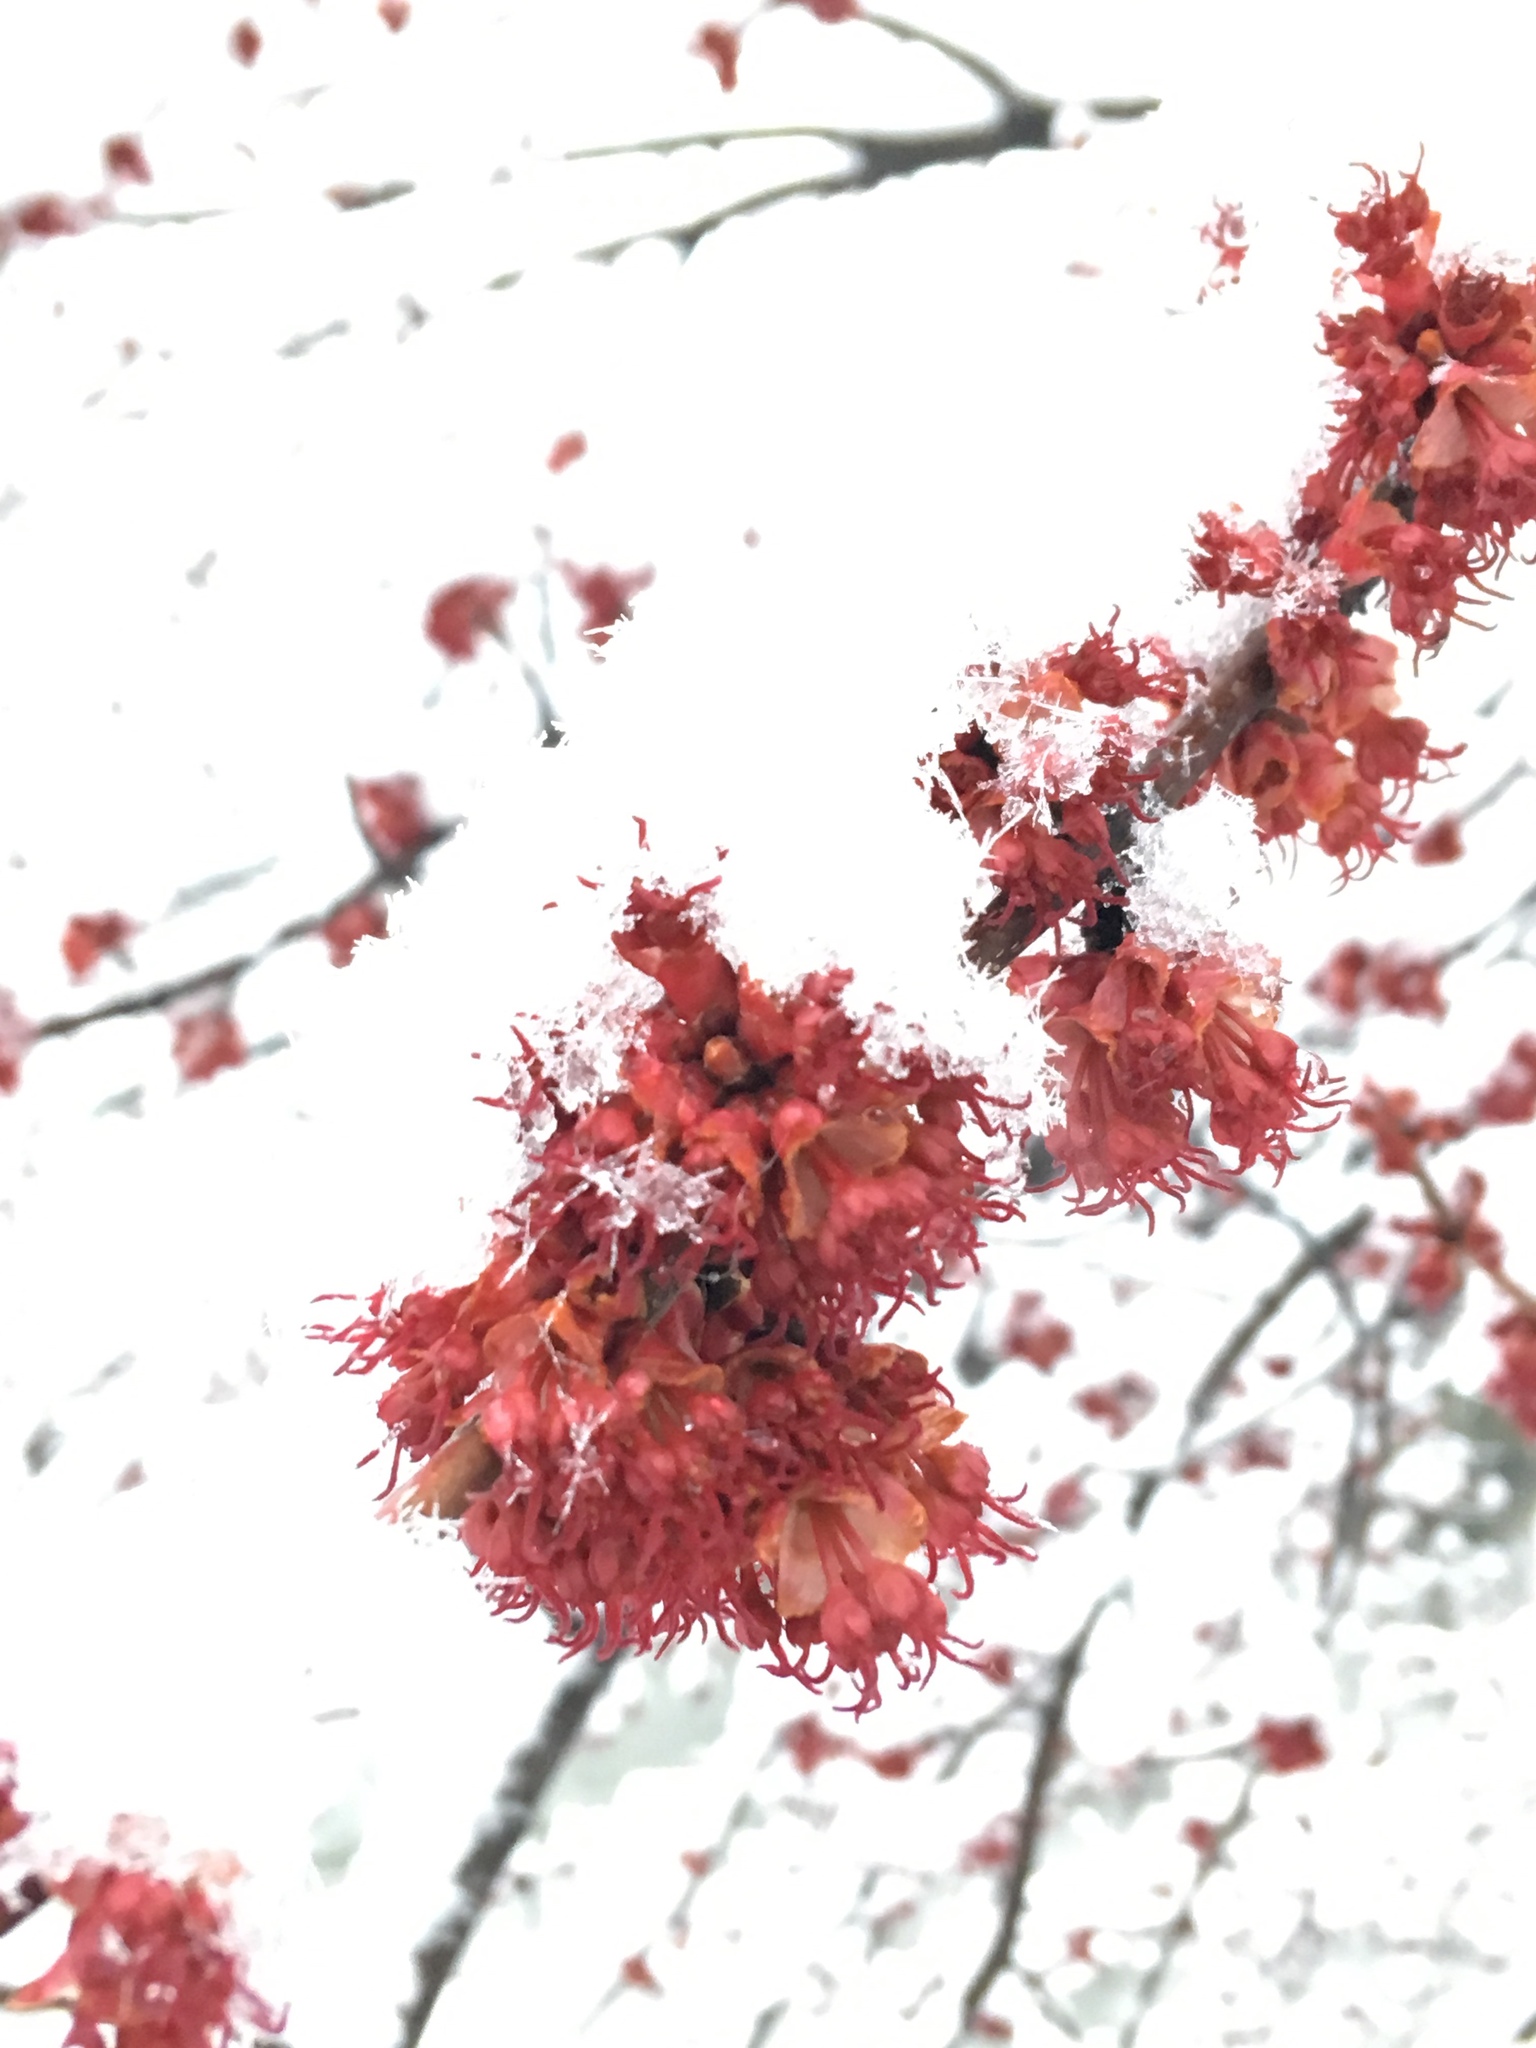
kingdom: Plantae
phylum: Tracheophyta
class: Magnoliopsida
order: Sapindales
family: Sapindaceae
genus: Acer
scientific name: Acer rubrum
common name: Red maple
